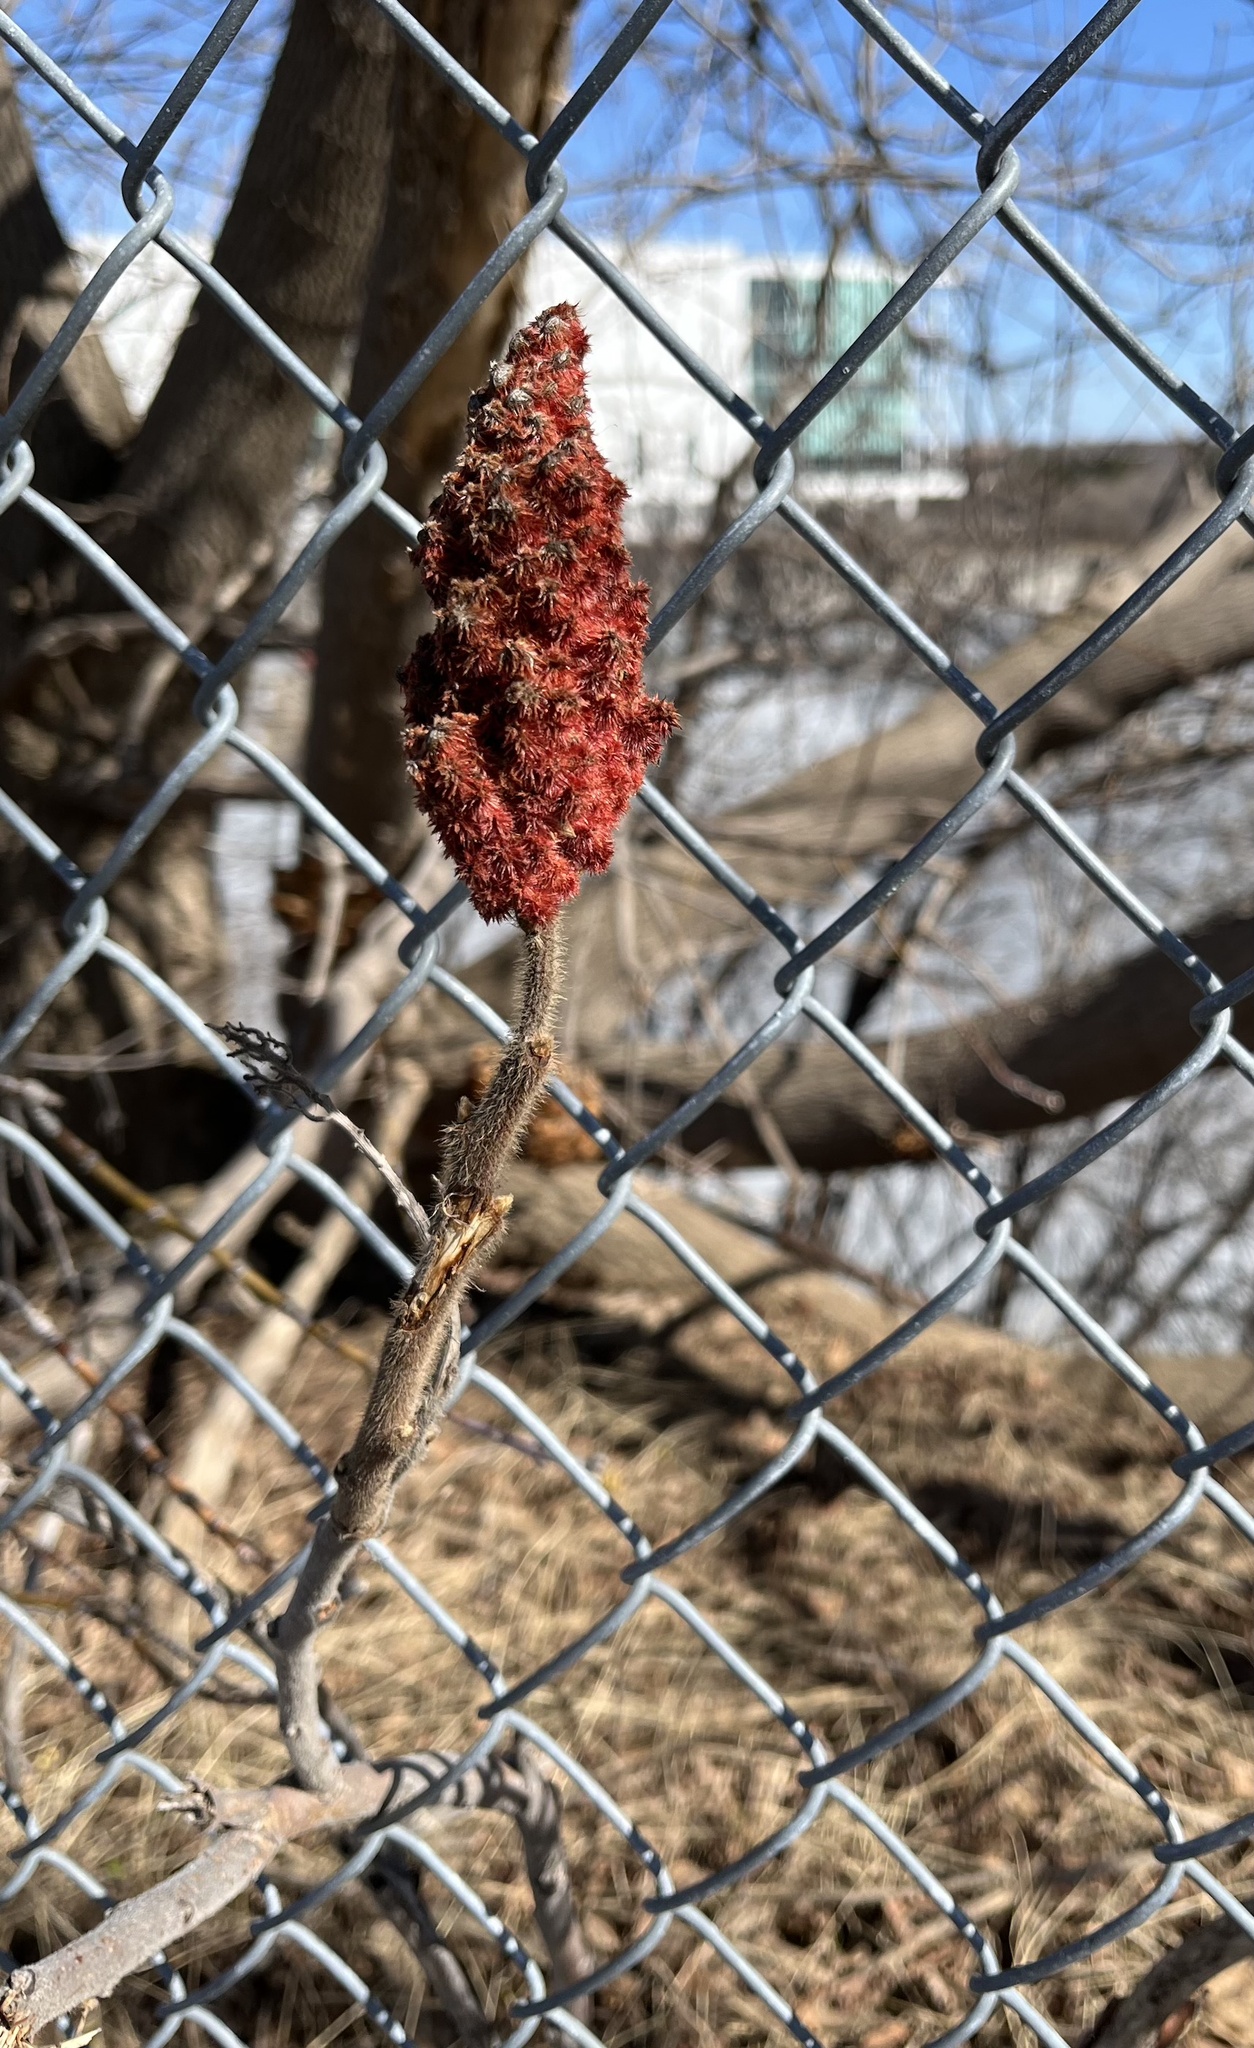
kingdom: Plantae
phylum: Tracheophyta
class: Magnoliopsida
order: Sapindales
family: Anacardiaceae
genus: Rhus
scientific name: Rhus typhina
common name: Staghorn sumac
